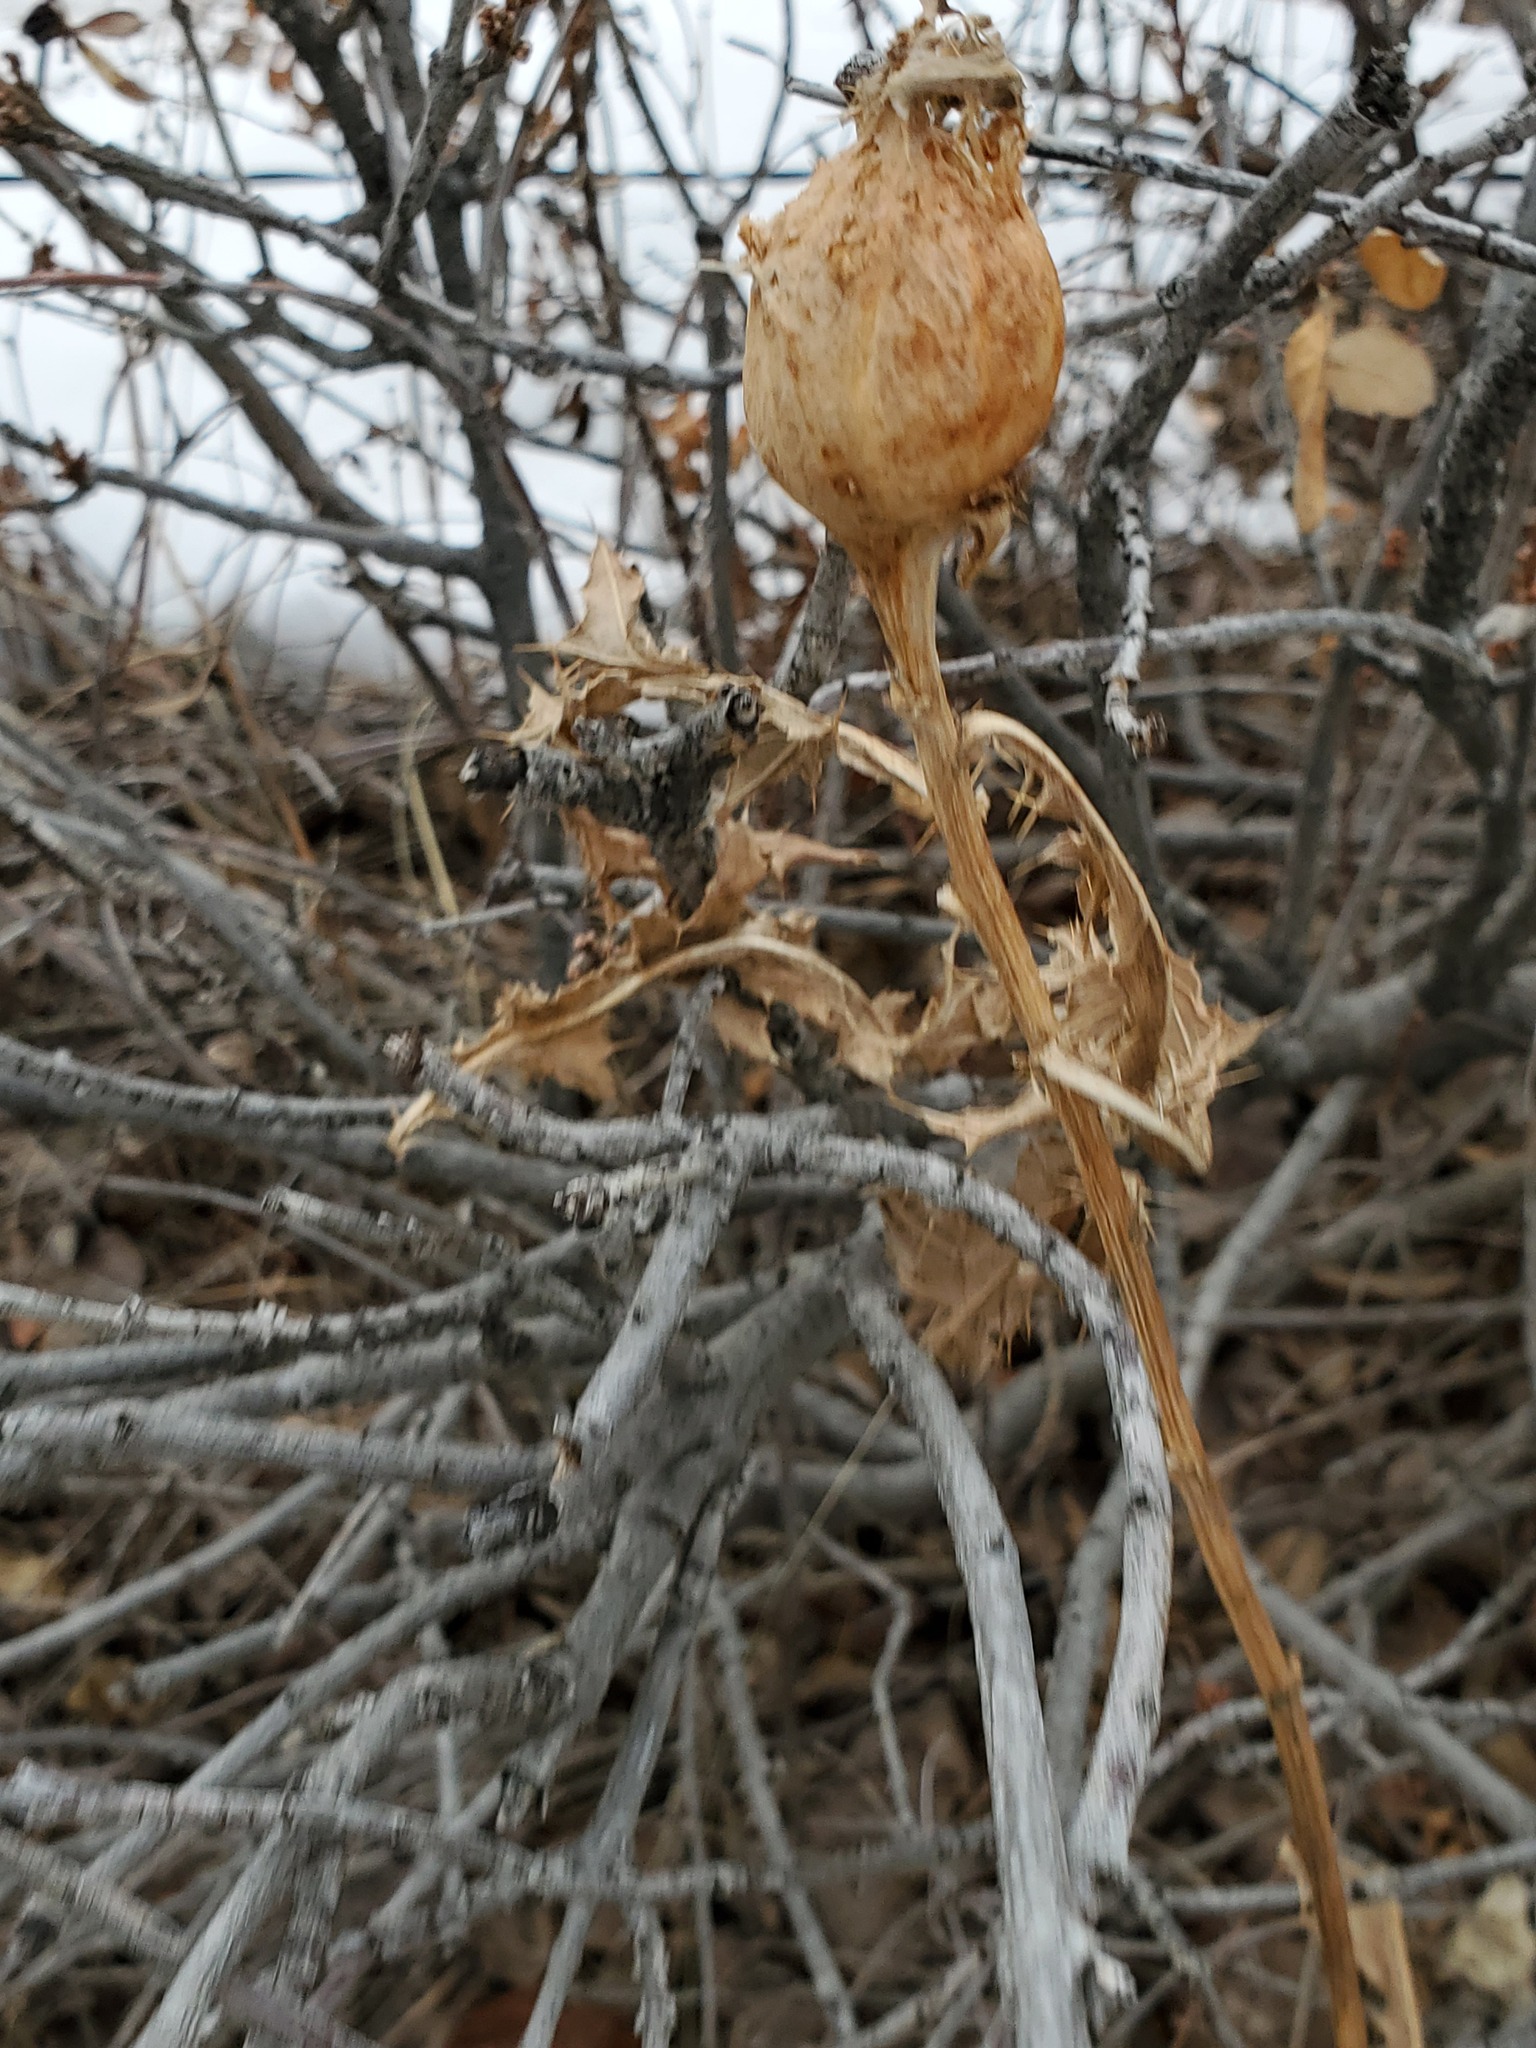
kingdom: Animalia
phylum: Arthropoda
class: Insecta
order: Diptera
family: Tephritidae
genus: Urophora
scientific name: Urophora cardui
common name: Fruit fly
